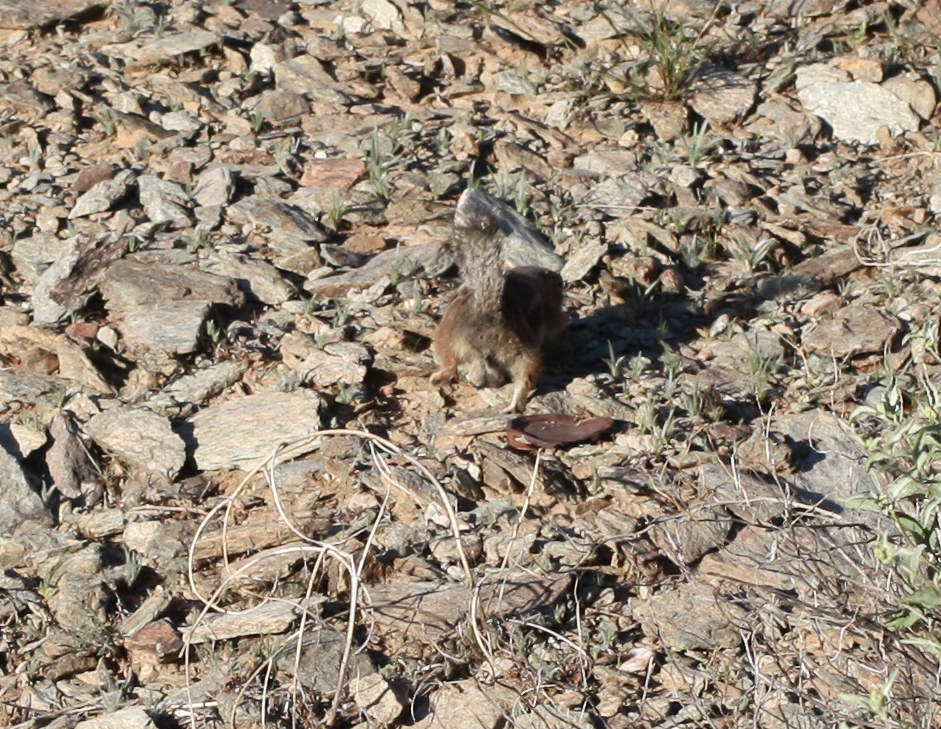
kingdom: Animalia
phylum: Chordata
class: Mammalia
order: Rodentia
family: Sciuridae
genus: Ammospermophilus
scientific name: Ammospermophilus harrisii
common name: Harris's antelope squirrel
